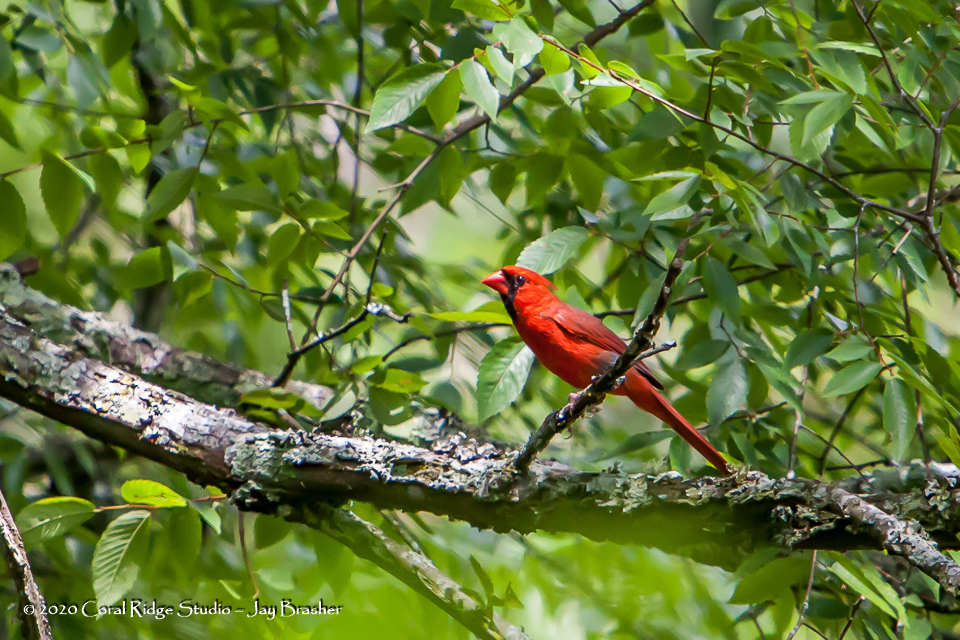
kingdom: Animalia
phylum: Chordata
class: Aves
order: Passeriformes
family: Cardinalidae
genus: Cardinalis
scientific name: Cardinalis cardinalis
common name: Northern cardinal
